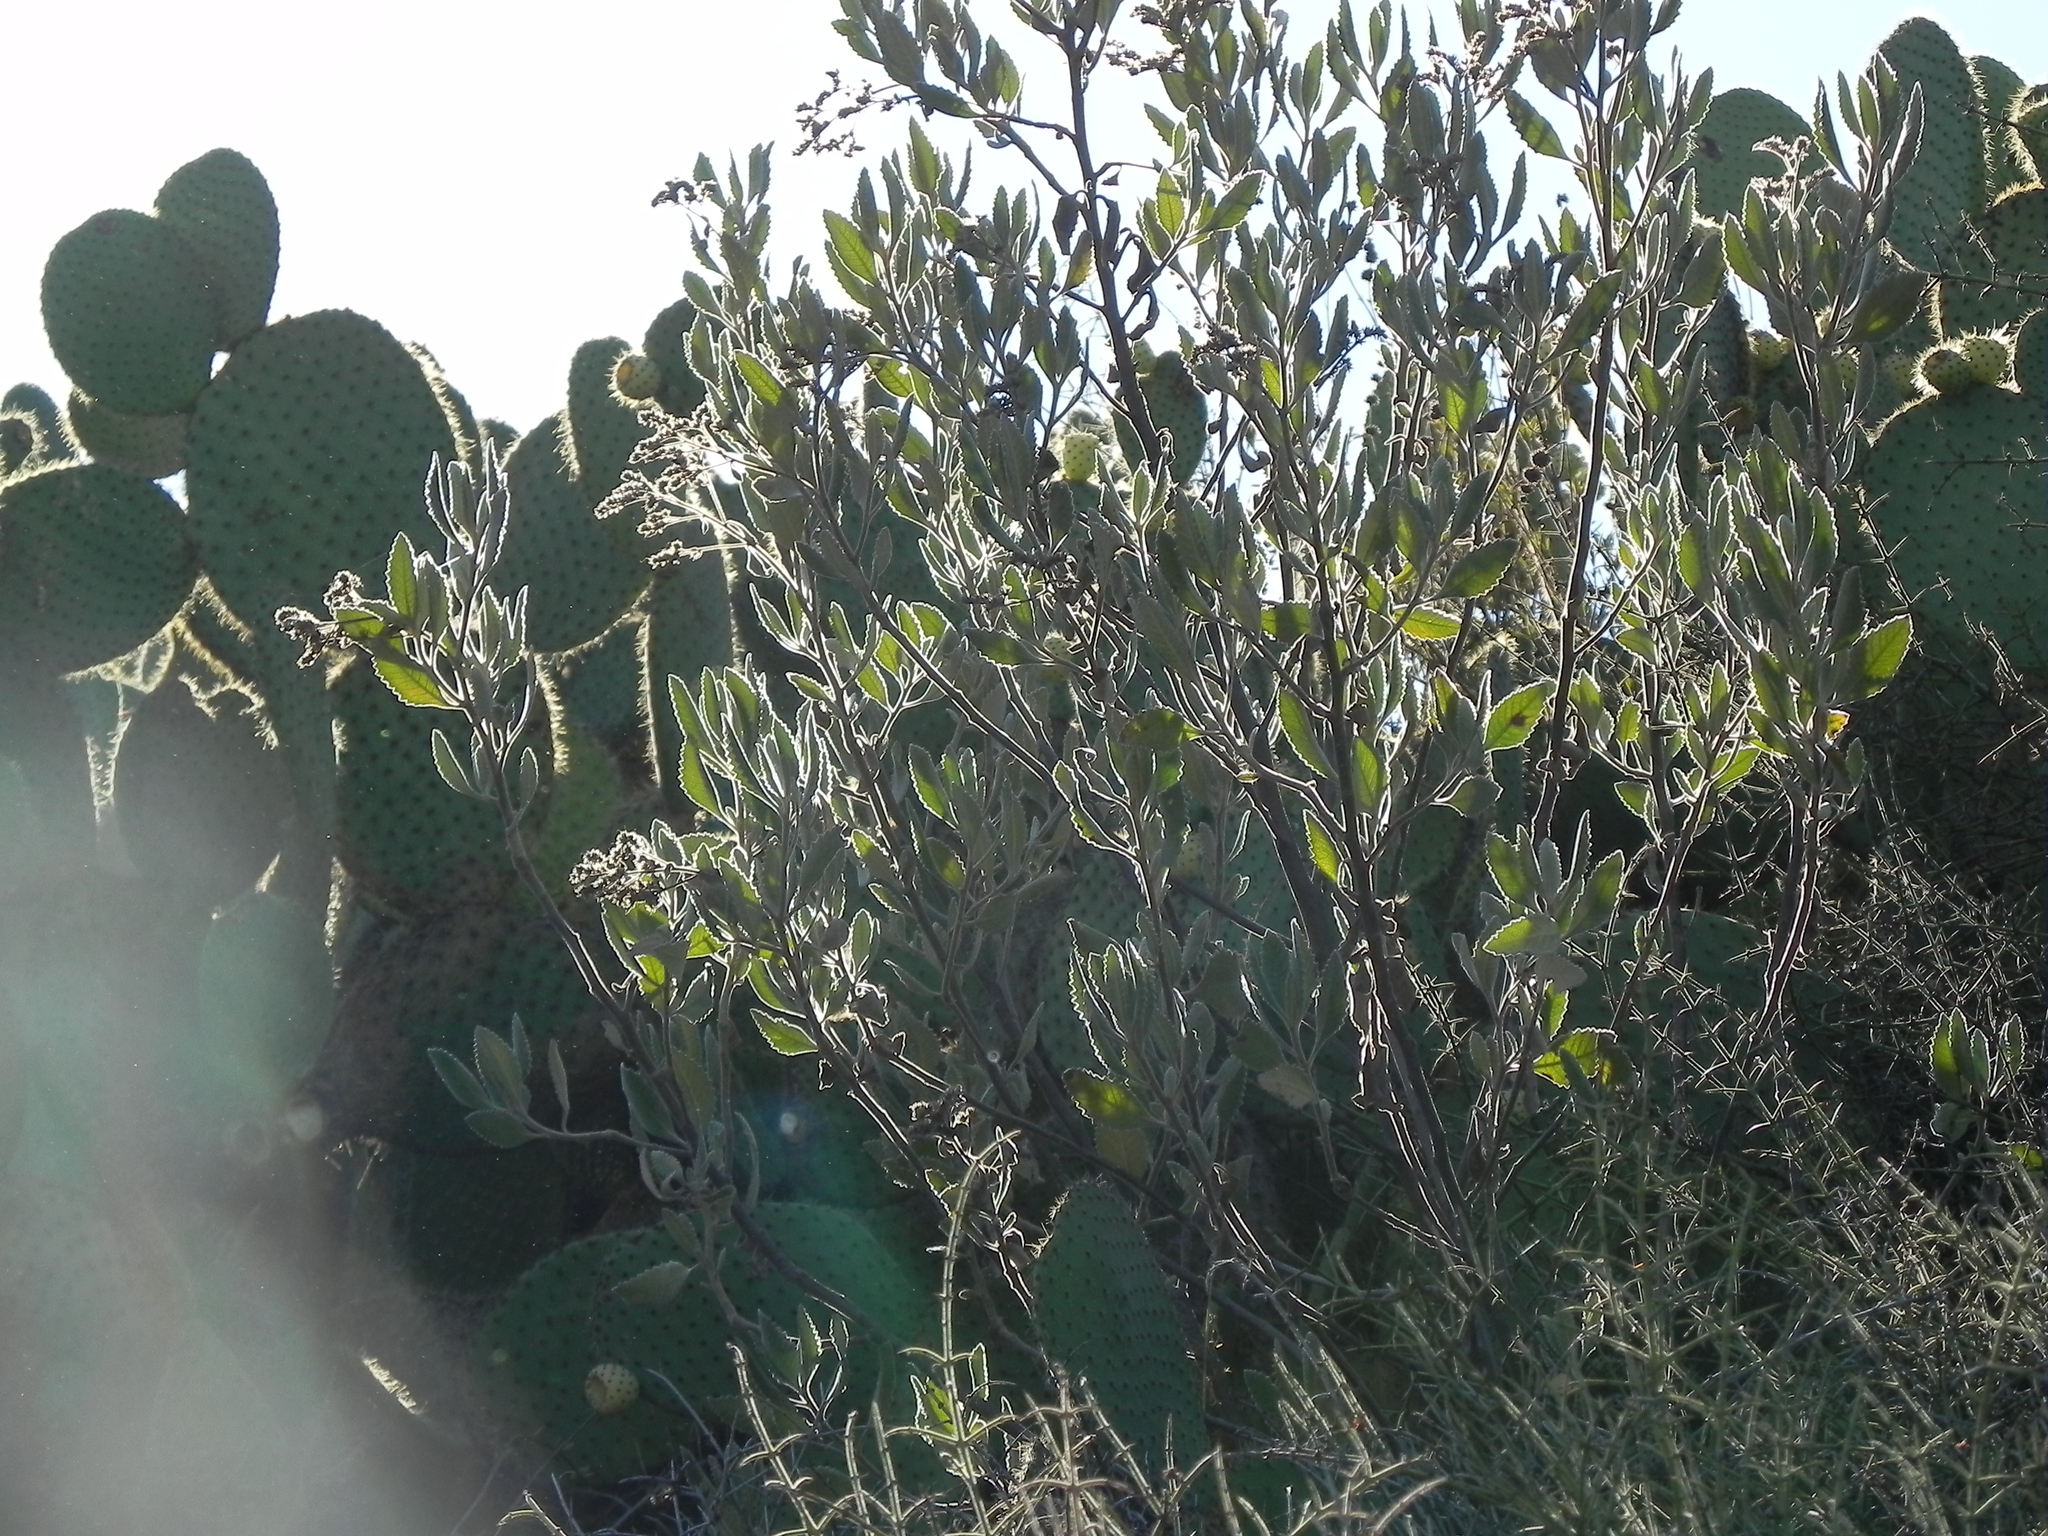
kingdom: Plantae
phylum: Tracheophyta
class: Magnoliopsida
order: Boraginales
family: Namaceae
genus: Eriodictyon
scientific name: Eriodictyon crassifolium
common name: Thick-leaf yerba-santa
